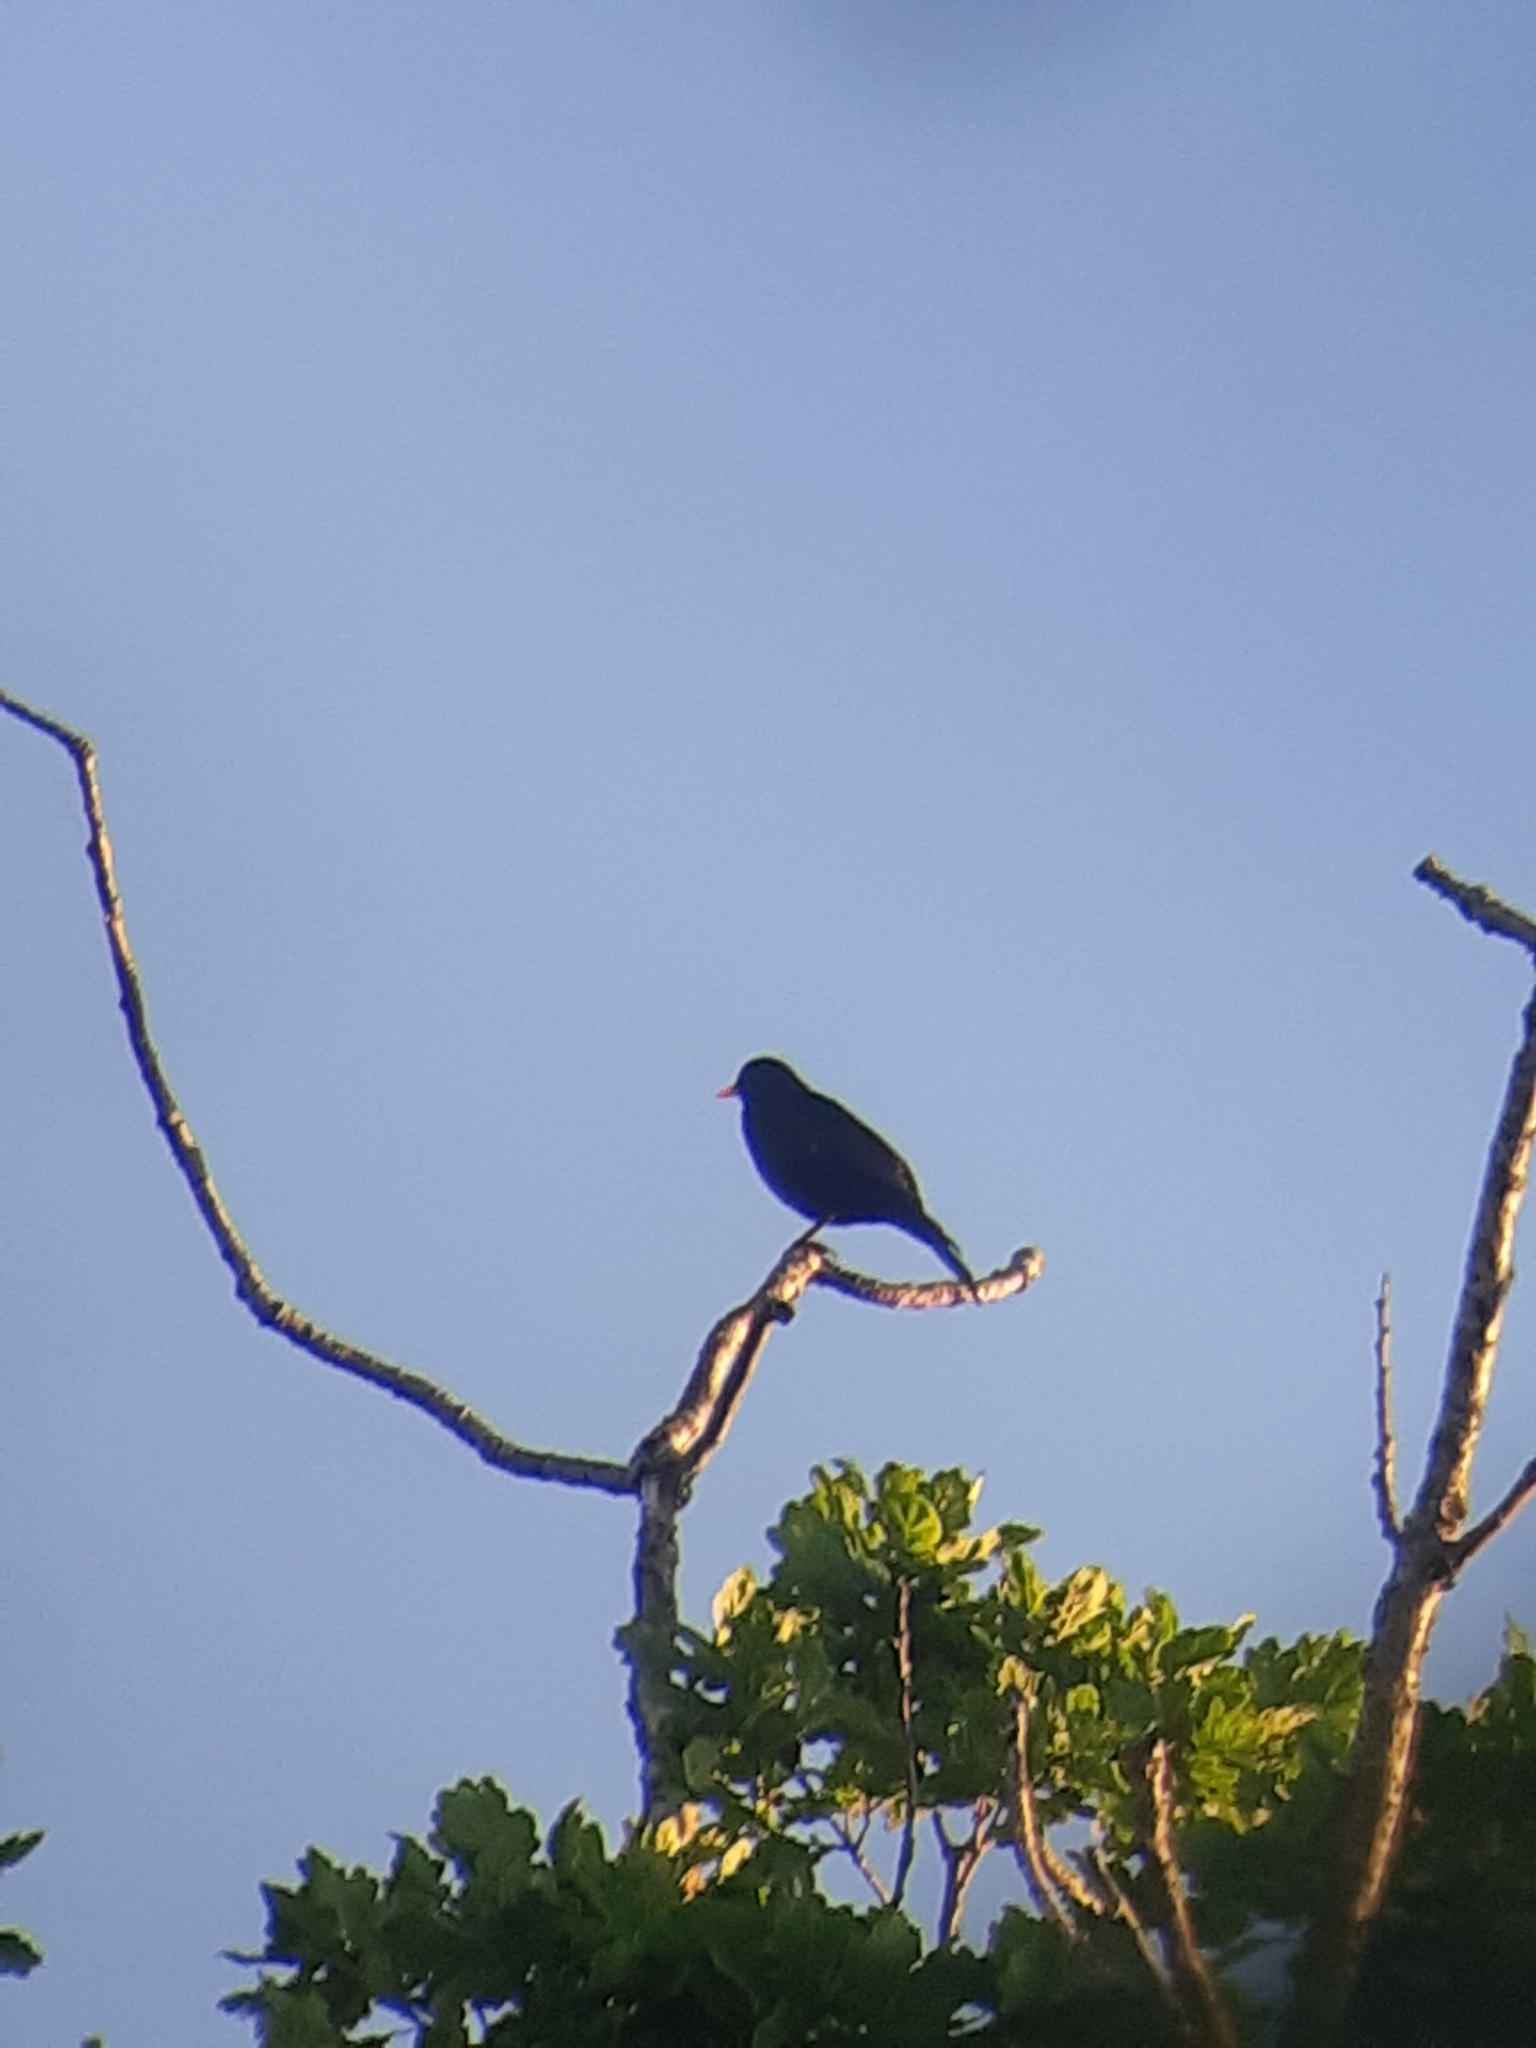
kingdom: Animalia
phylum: Chordata
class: Aves
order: Passeriformes
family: Turdidae
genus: Turdus
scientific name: Turdus merula
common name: Common blackbird
